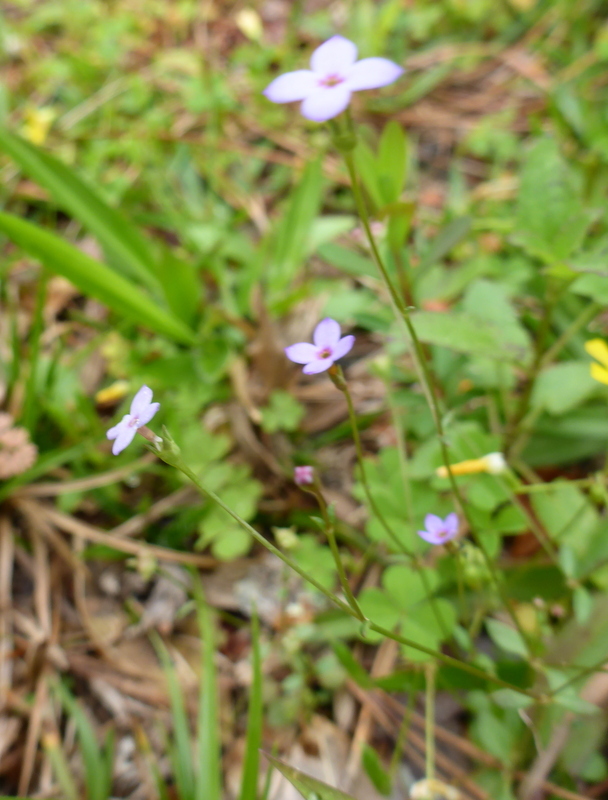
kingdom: Plantae
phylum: Tracheophyta
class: Magnoliopsida
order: Gentianales
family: Rubiaceae
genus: Houstonia
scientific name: Houstonia pusilla
